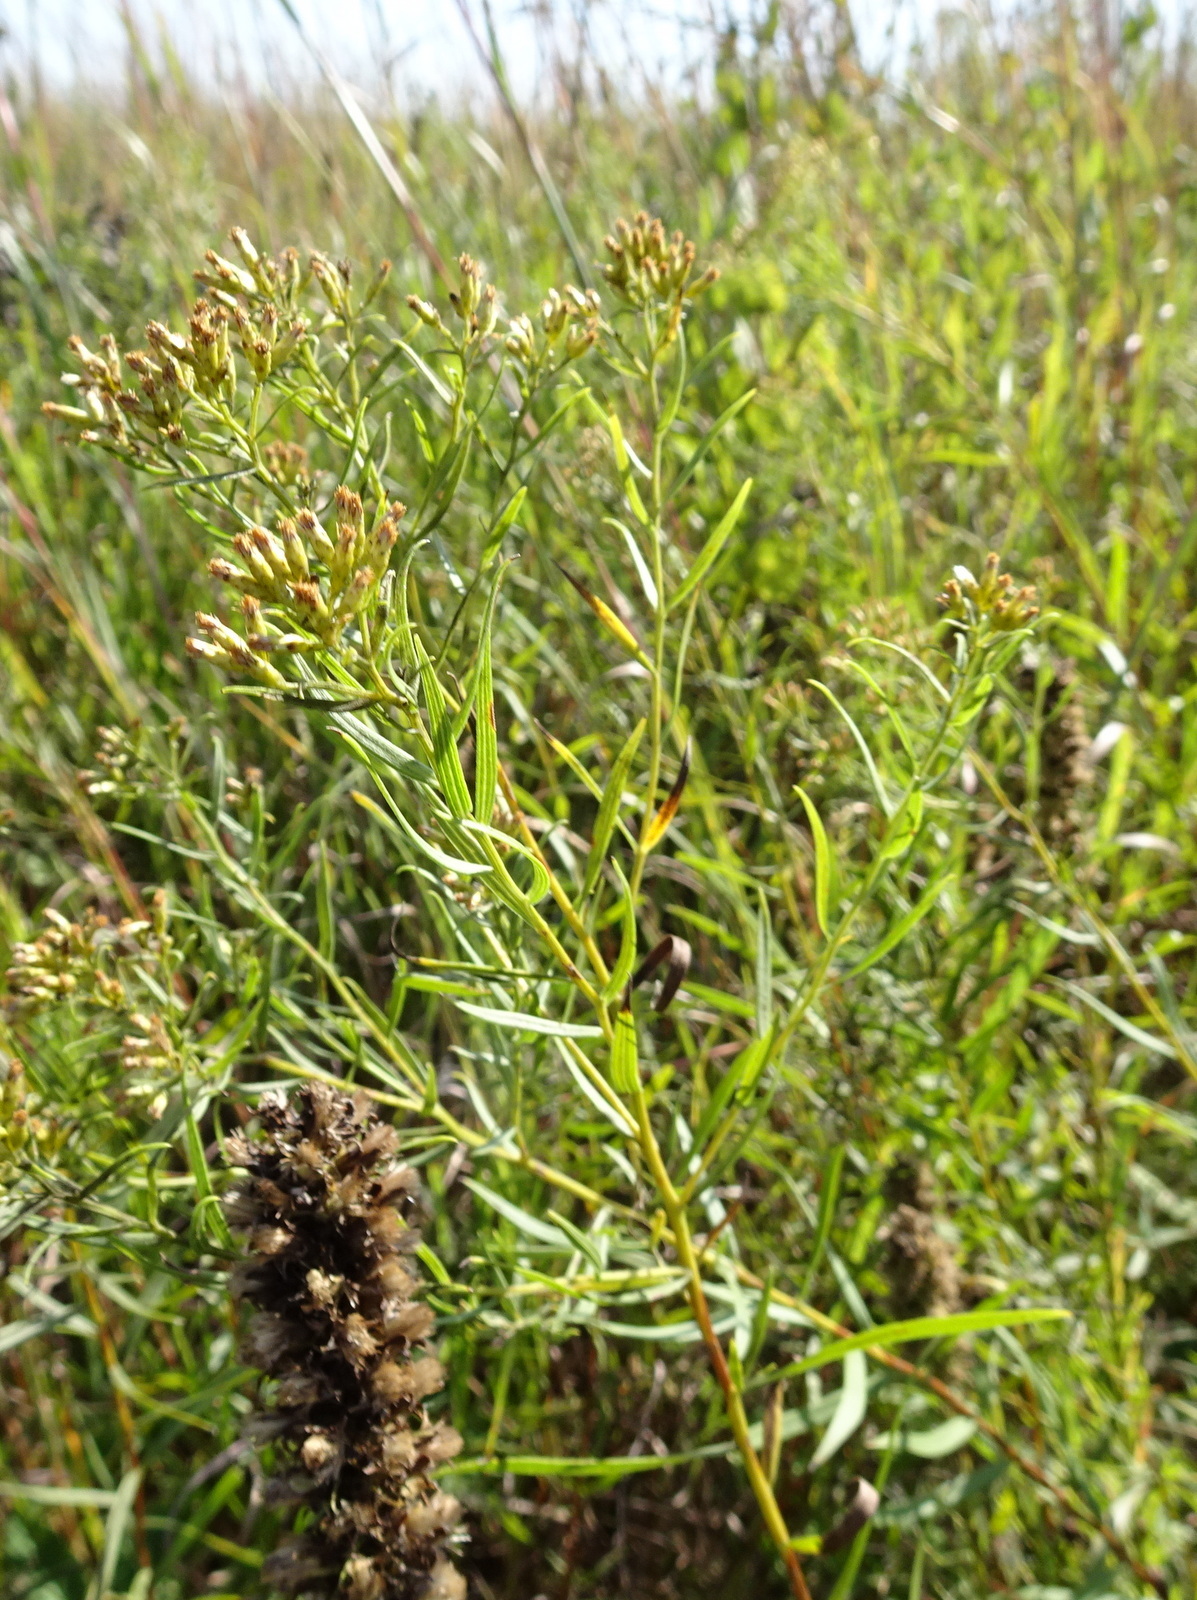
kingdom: Plantae
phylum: Tracheophyta
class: Magnoliopsida
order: Asterales
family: Asteraceae
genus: Euthamia
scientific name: Euthamia gymnospermoides
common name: Great plains goldentop
